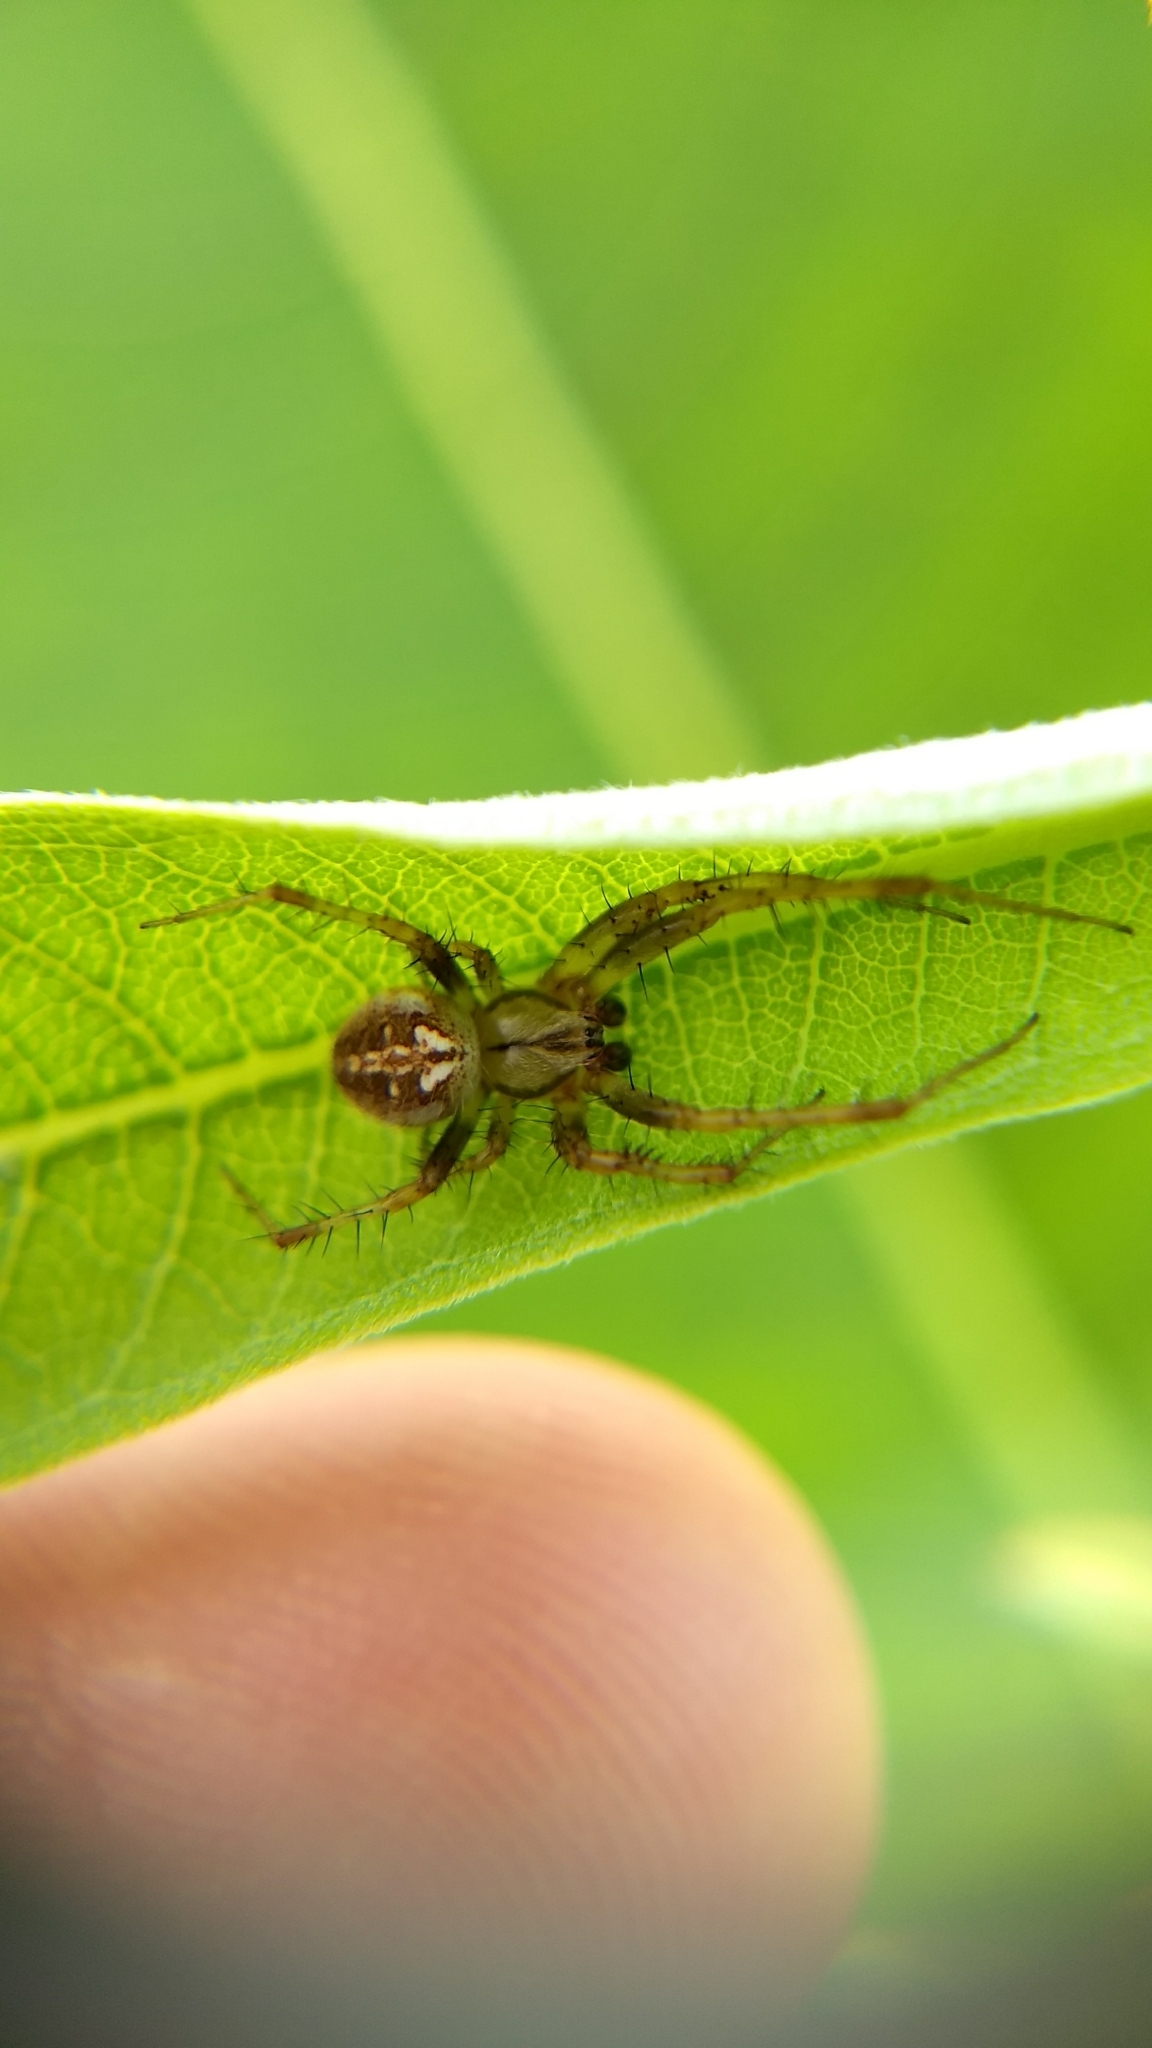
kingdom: Animalia
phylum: Arthropoda
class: Arachnida
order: Araneae
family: Araneidae
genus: Neoscona
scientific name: Neoscona arabesca
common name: Orb weavers
